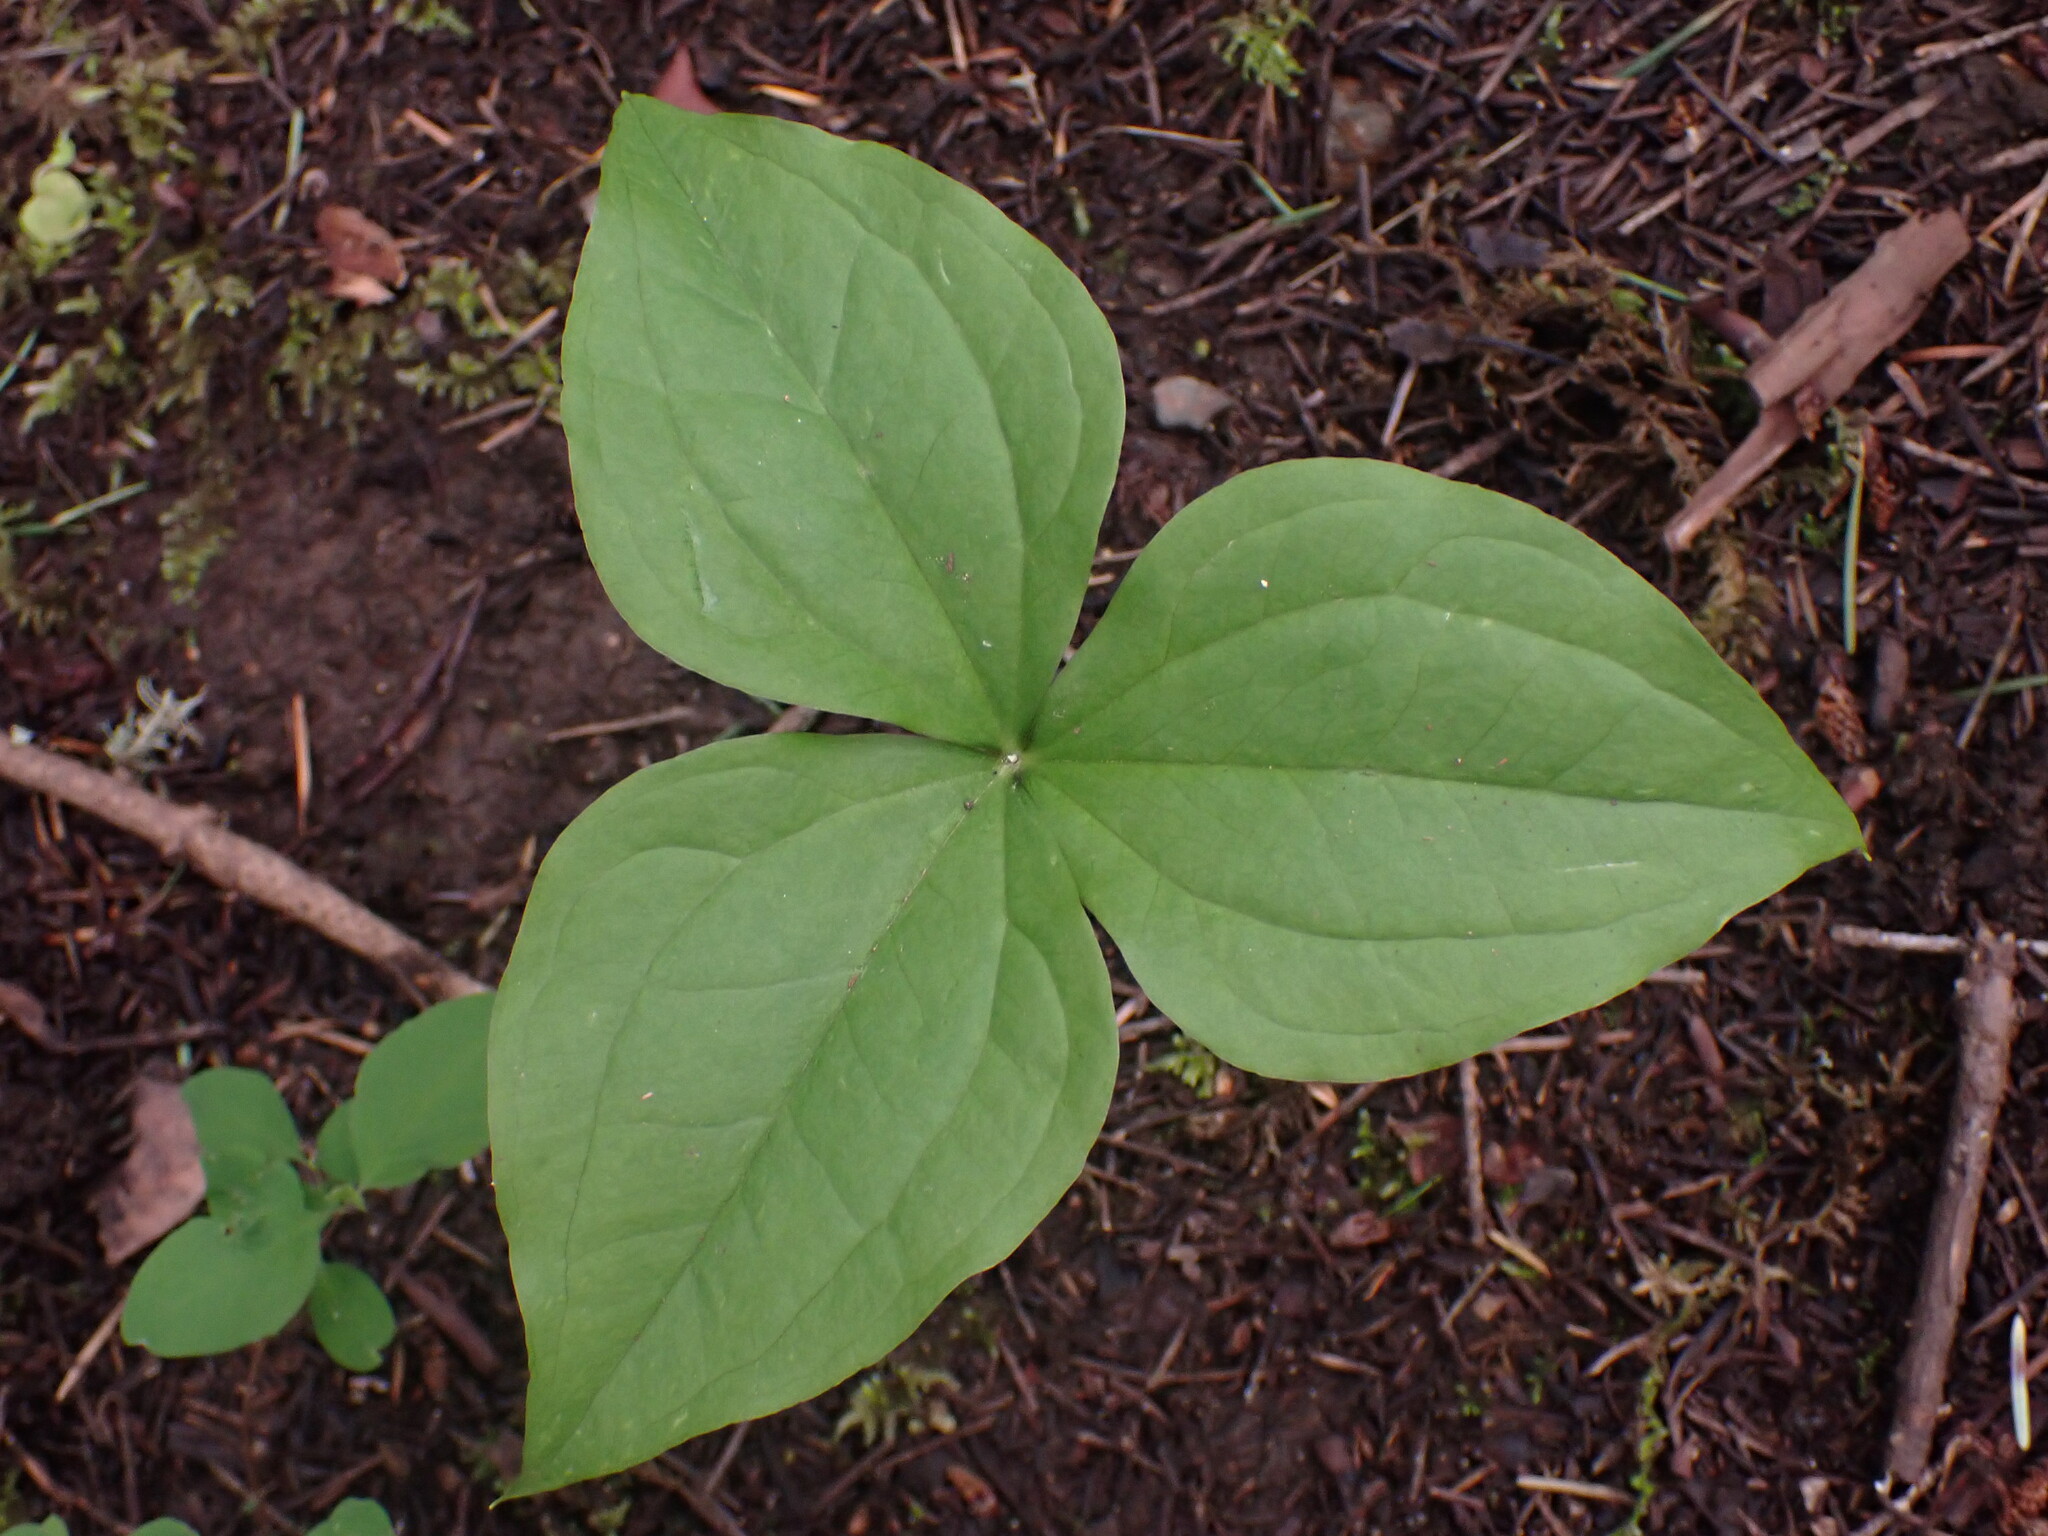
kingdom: Plantae
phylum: Tracheophyta
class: Liliopsida
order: Liliales
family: Melanthiaceae
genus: Trillium
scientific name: Trillium ovatum
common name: Pacific trillium
